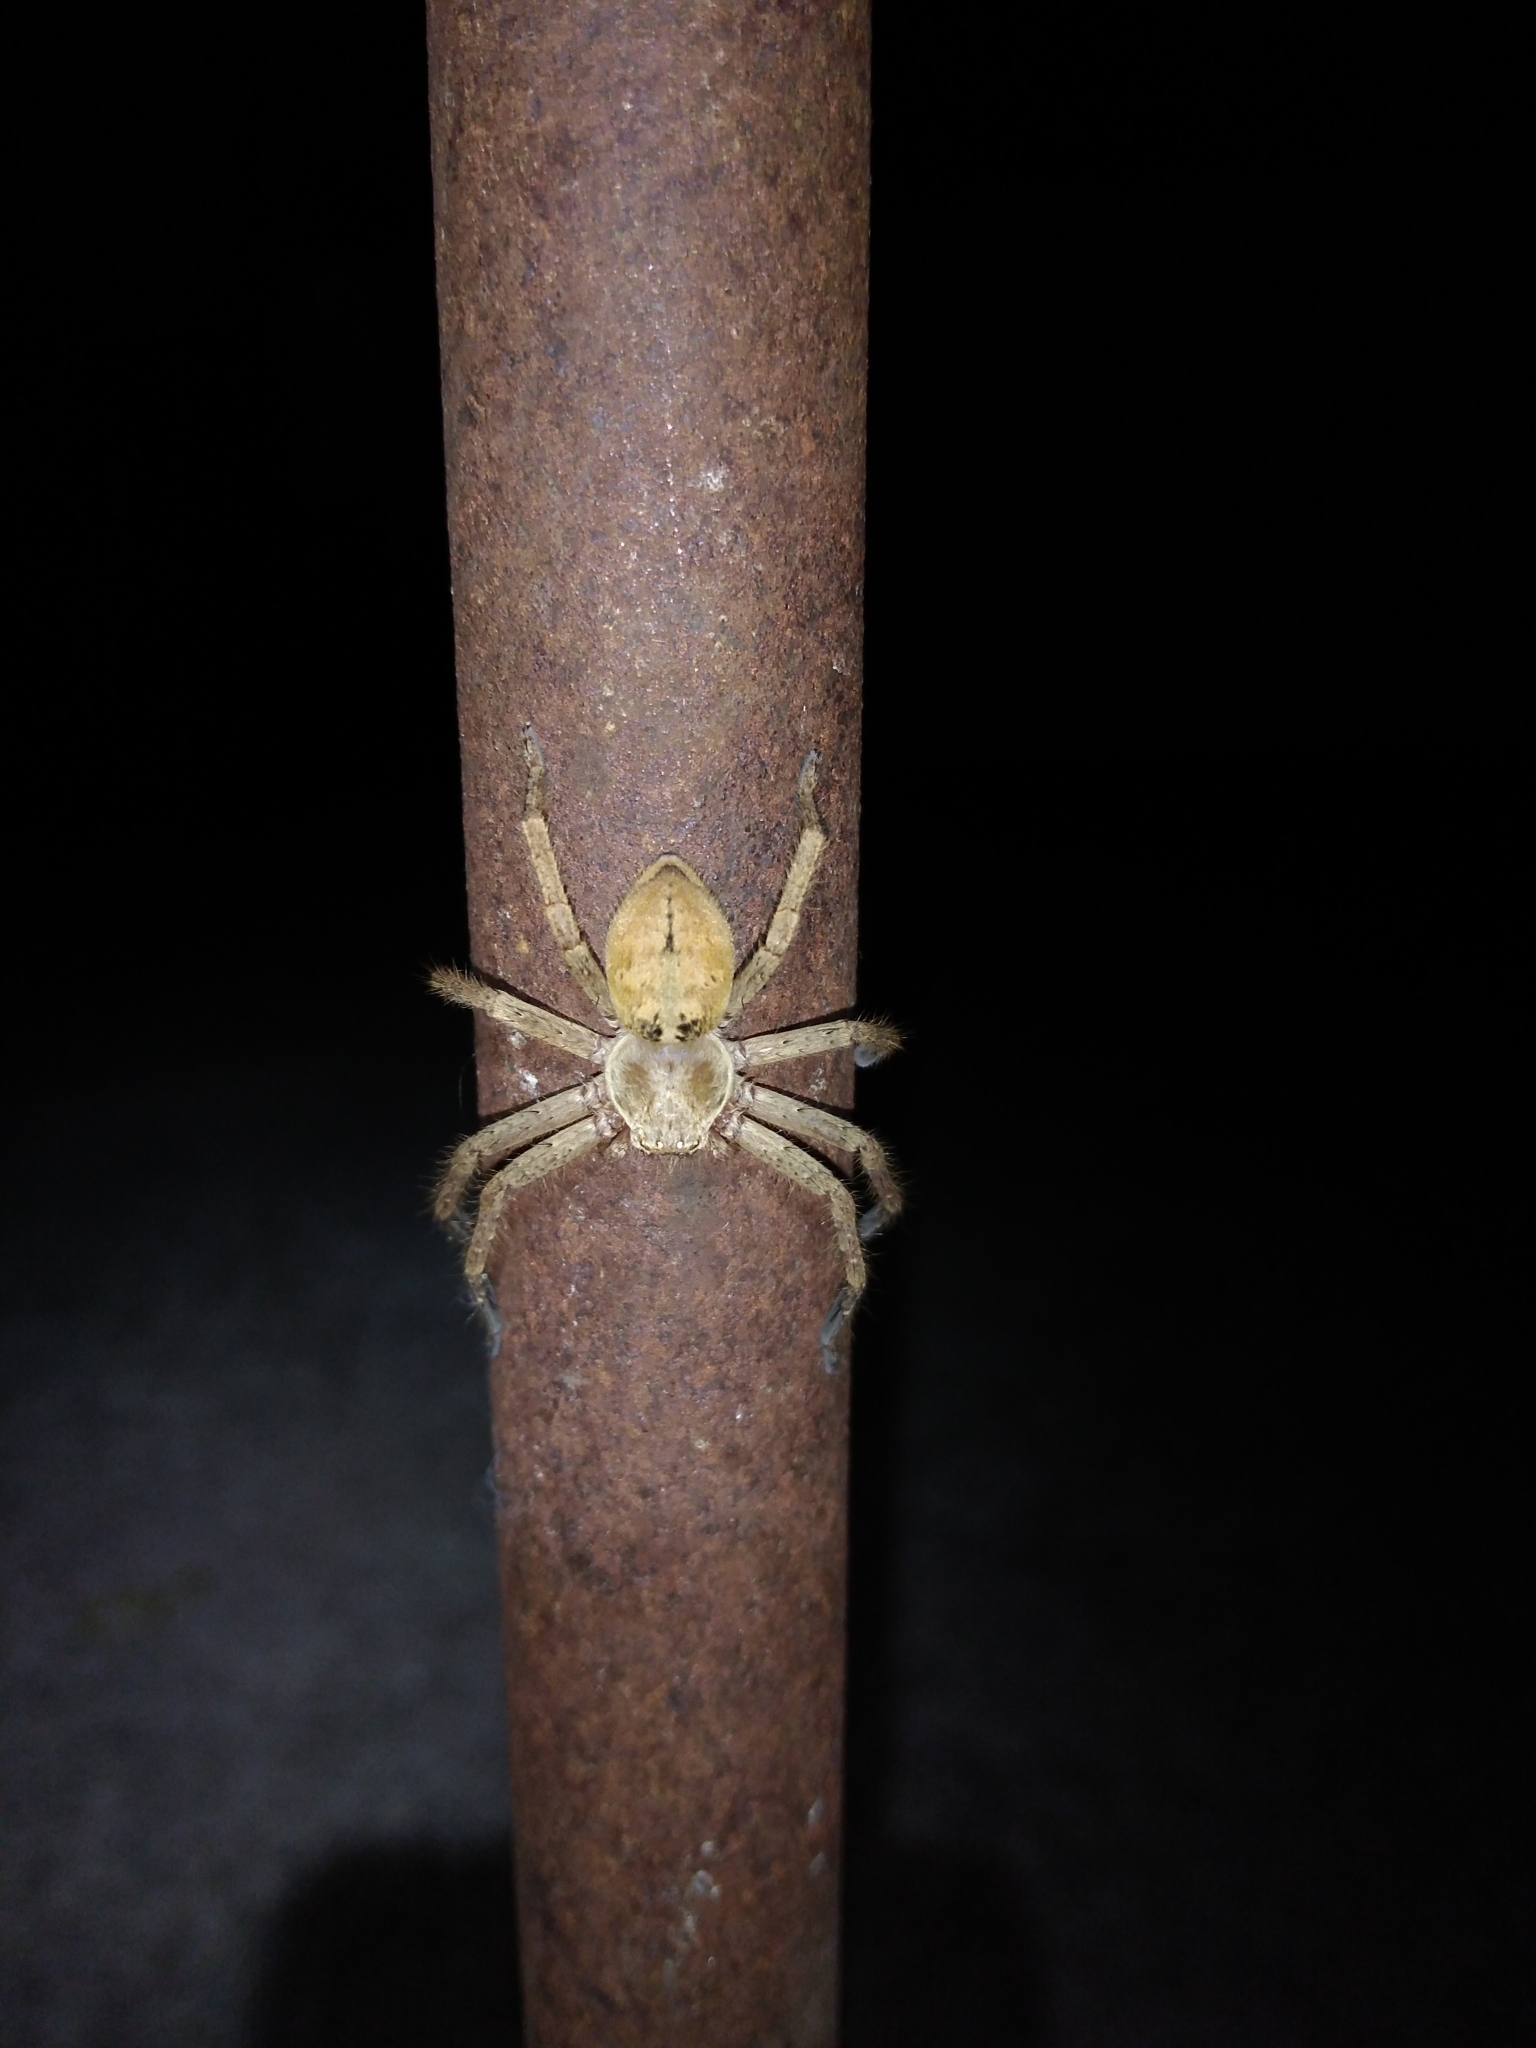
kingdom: Animalia
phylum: Arthropoda
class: Arachnida
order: Araneae
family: Sparassidae
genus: Polybetes
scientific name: Polybetes rapidus
